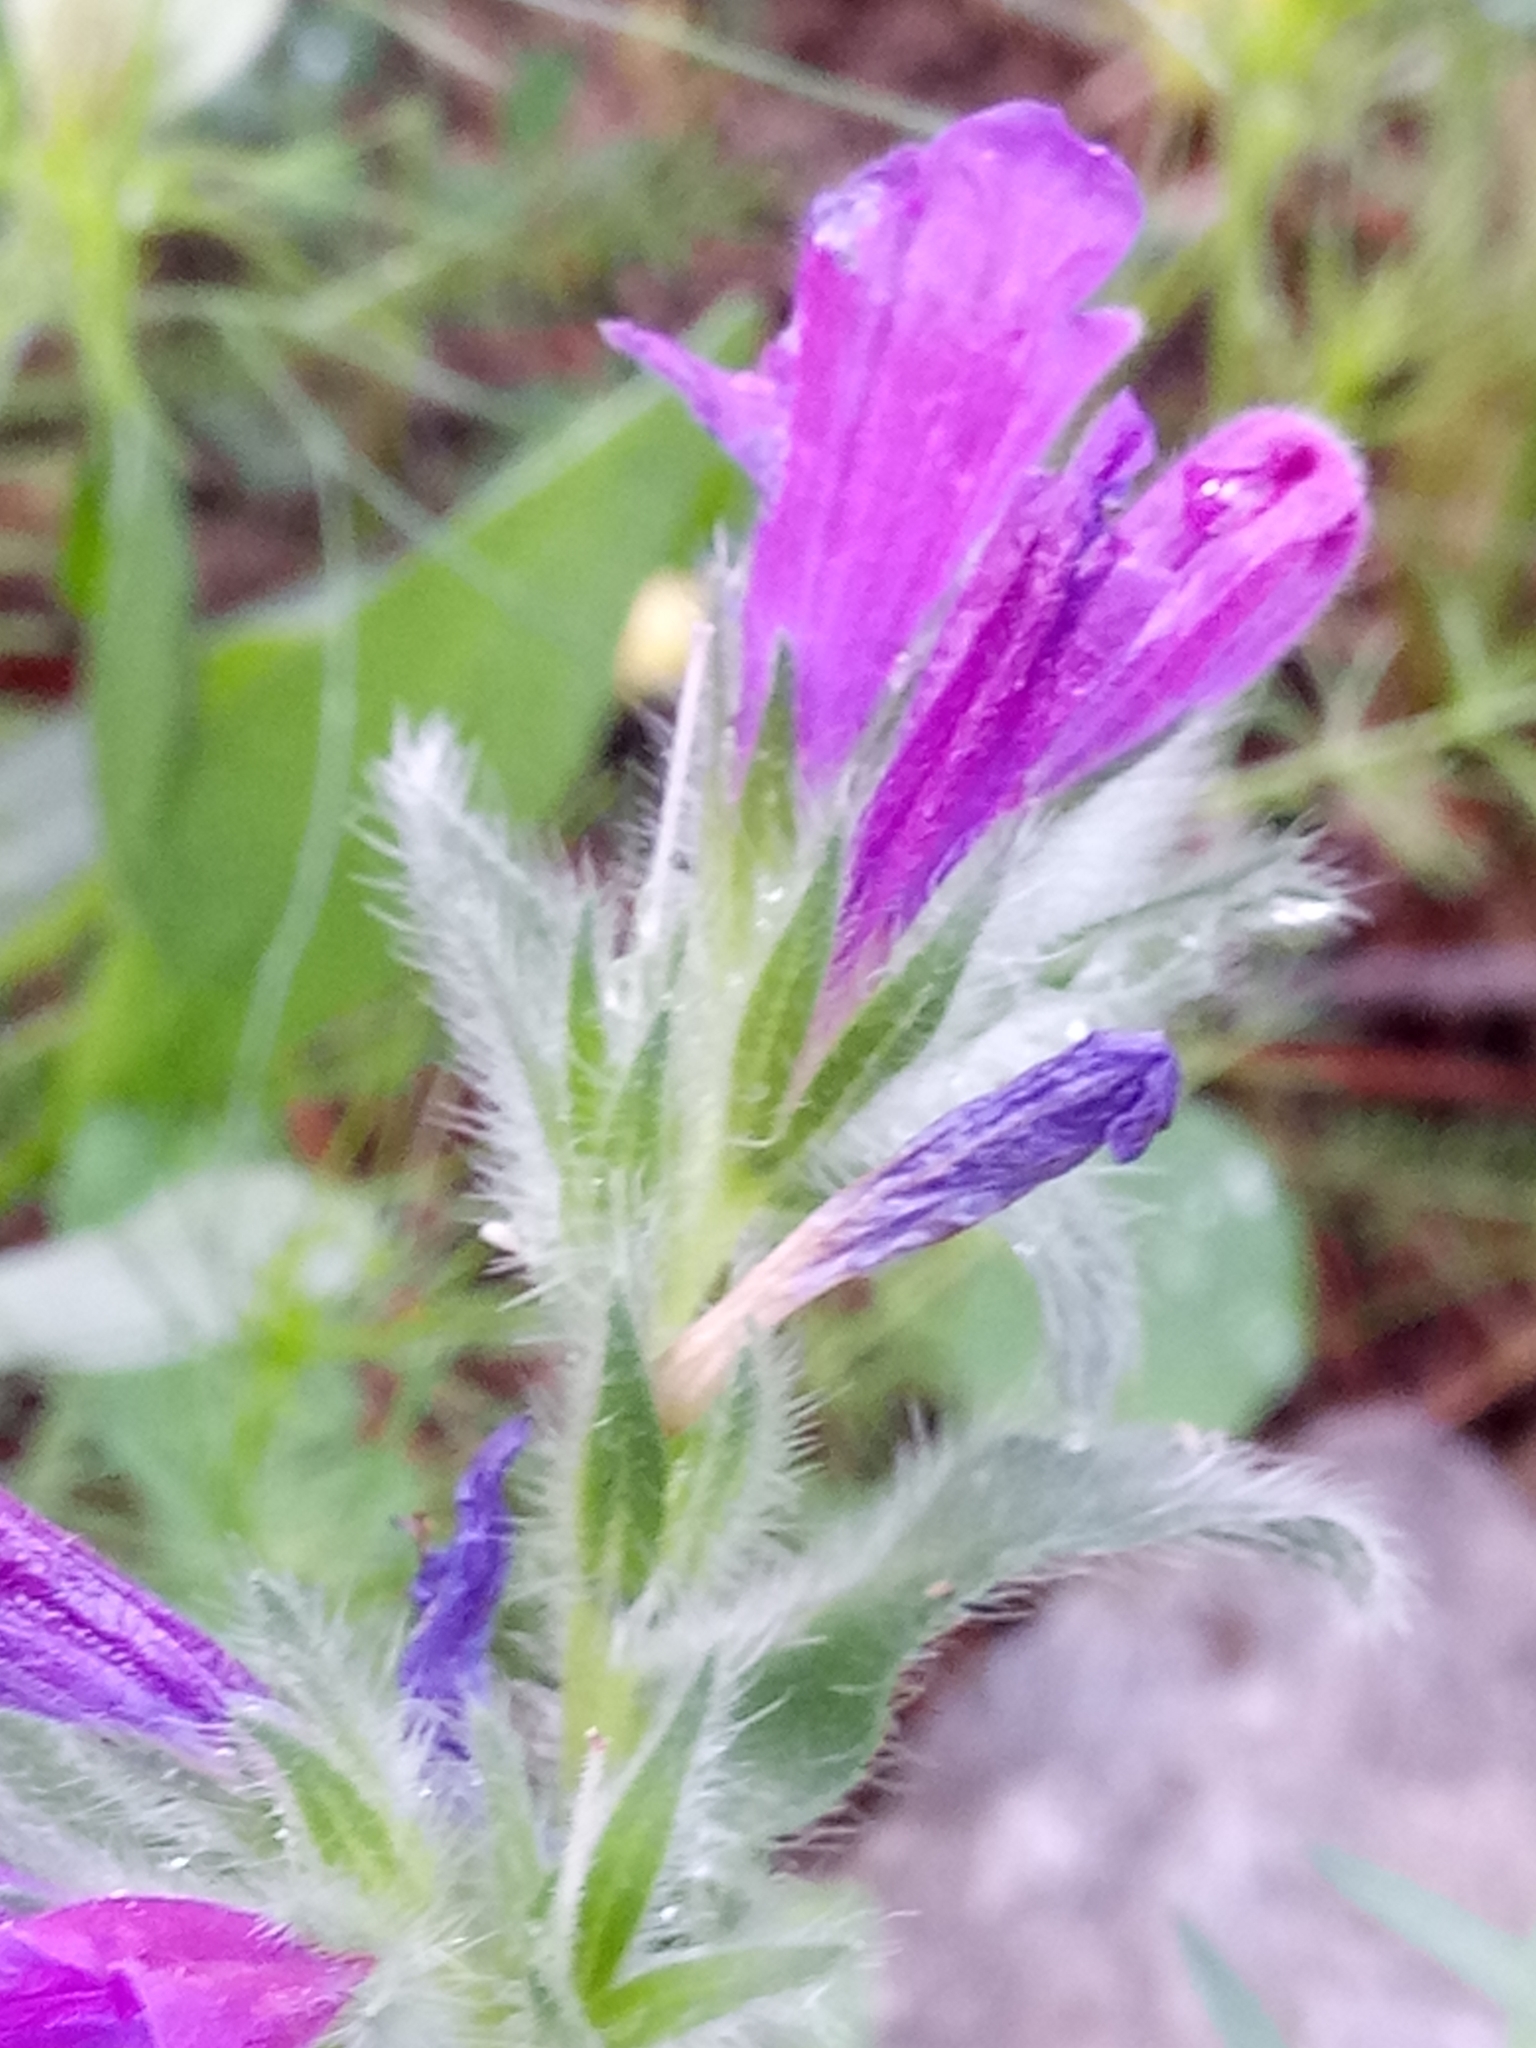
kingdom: Plantae
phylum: Tracheophyta
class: Magnoliopsida
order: Boraginales
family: Boraginaceae
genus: Echium
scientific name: Echium plantagineum
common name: Purple viper's-bugloss
